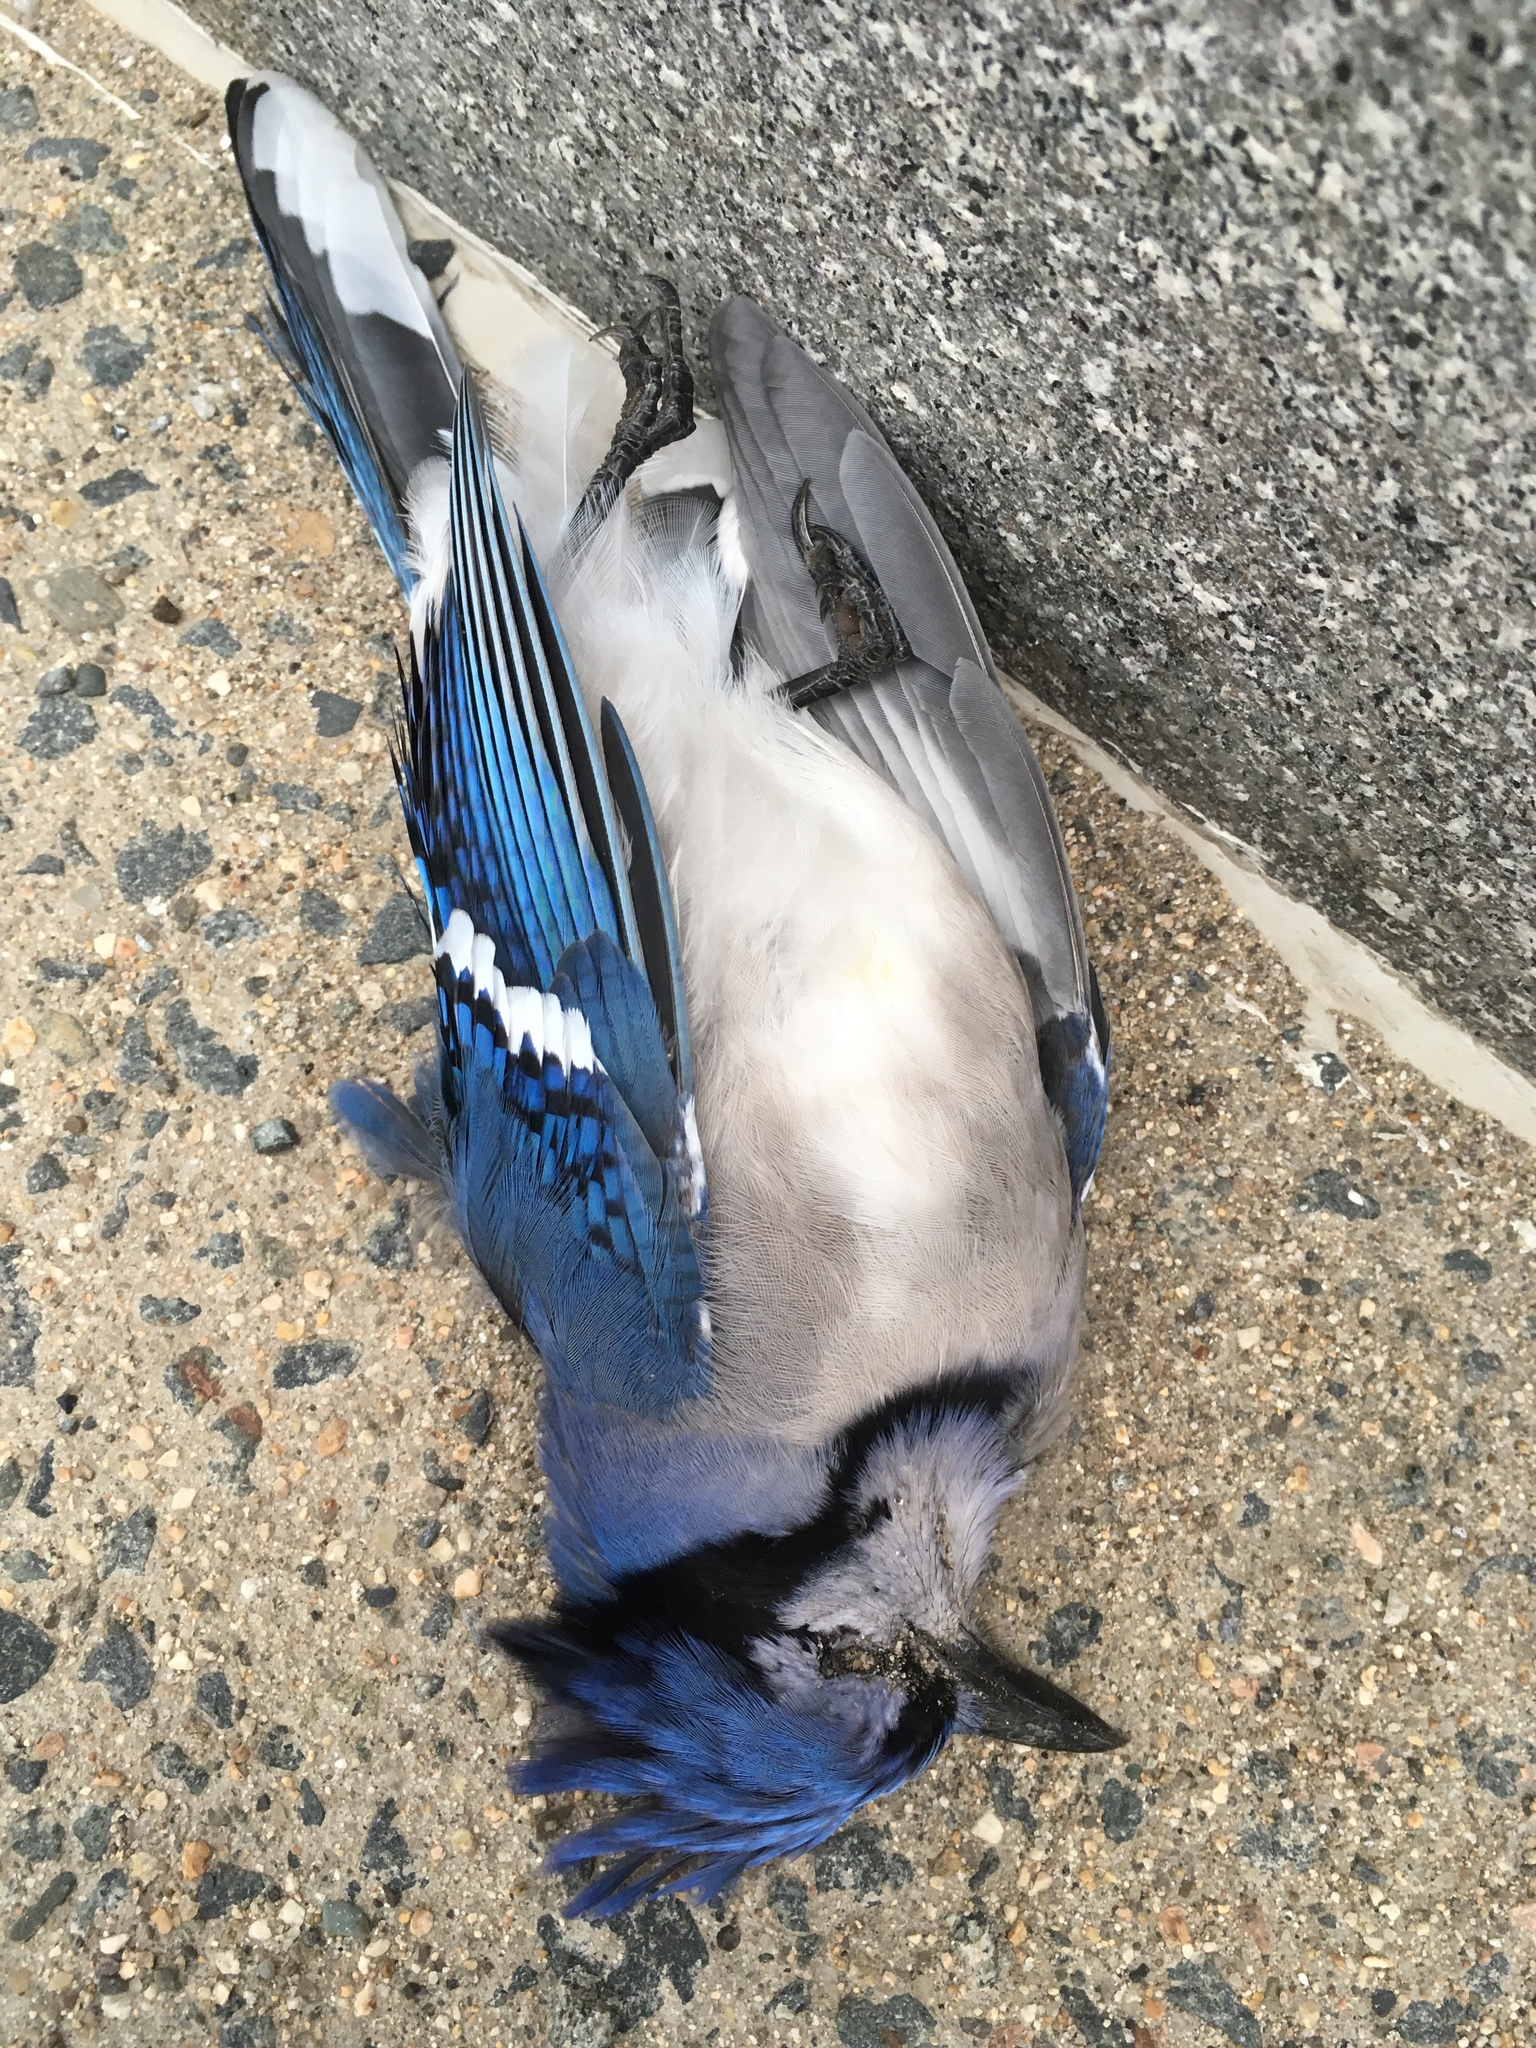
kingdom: Animalia
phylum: Chordata
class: Aves
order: Passeriformes
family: Corvidae
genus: Cyanocitta
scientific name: Cyanocitta cristata
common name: Blue jay
